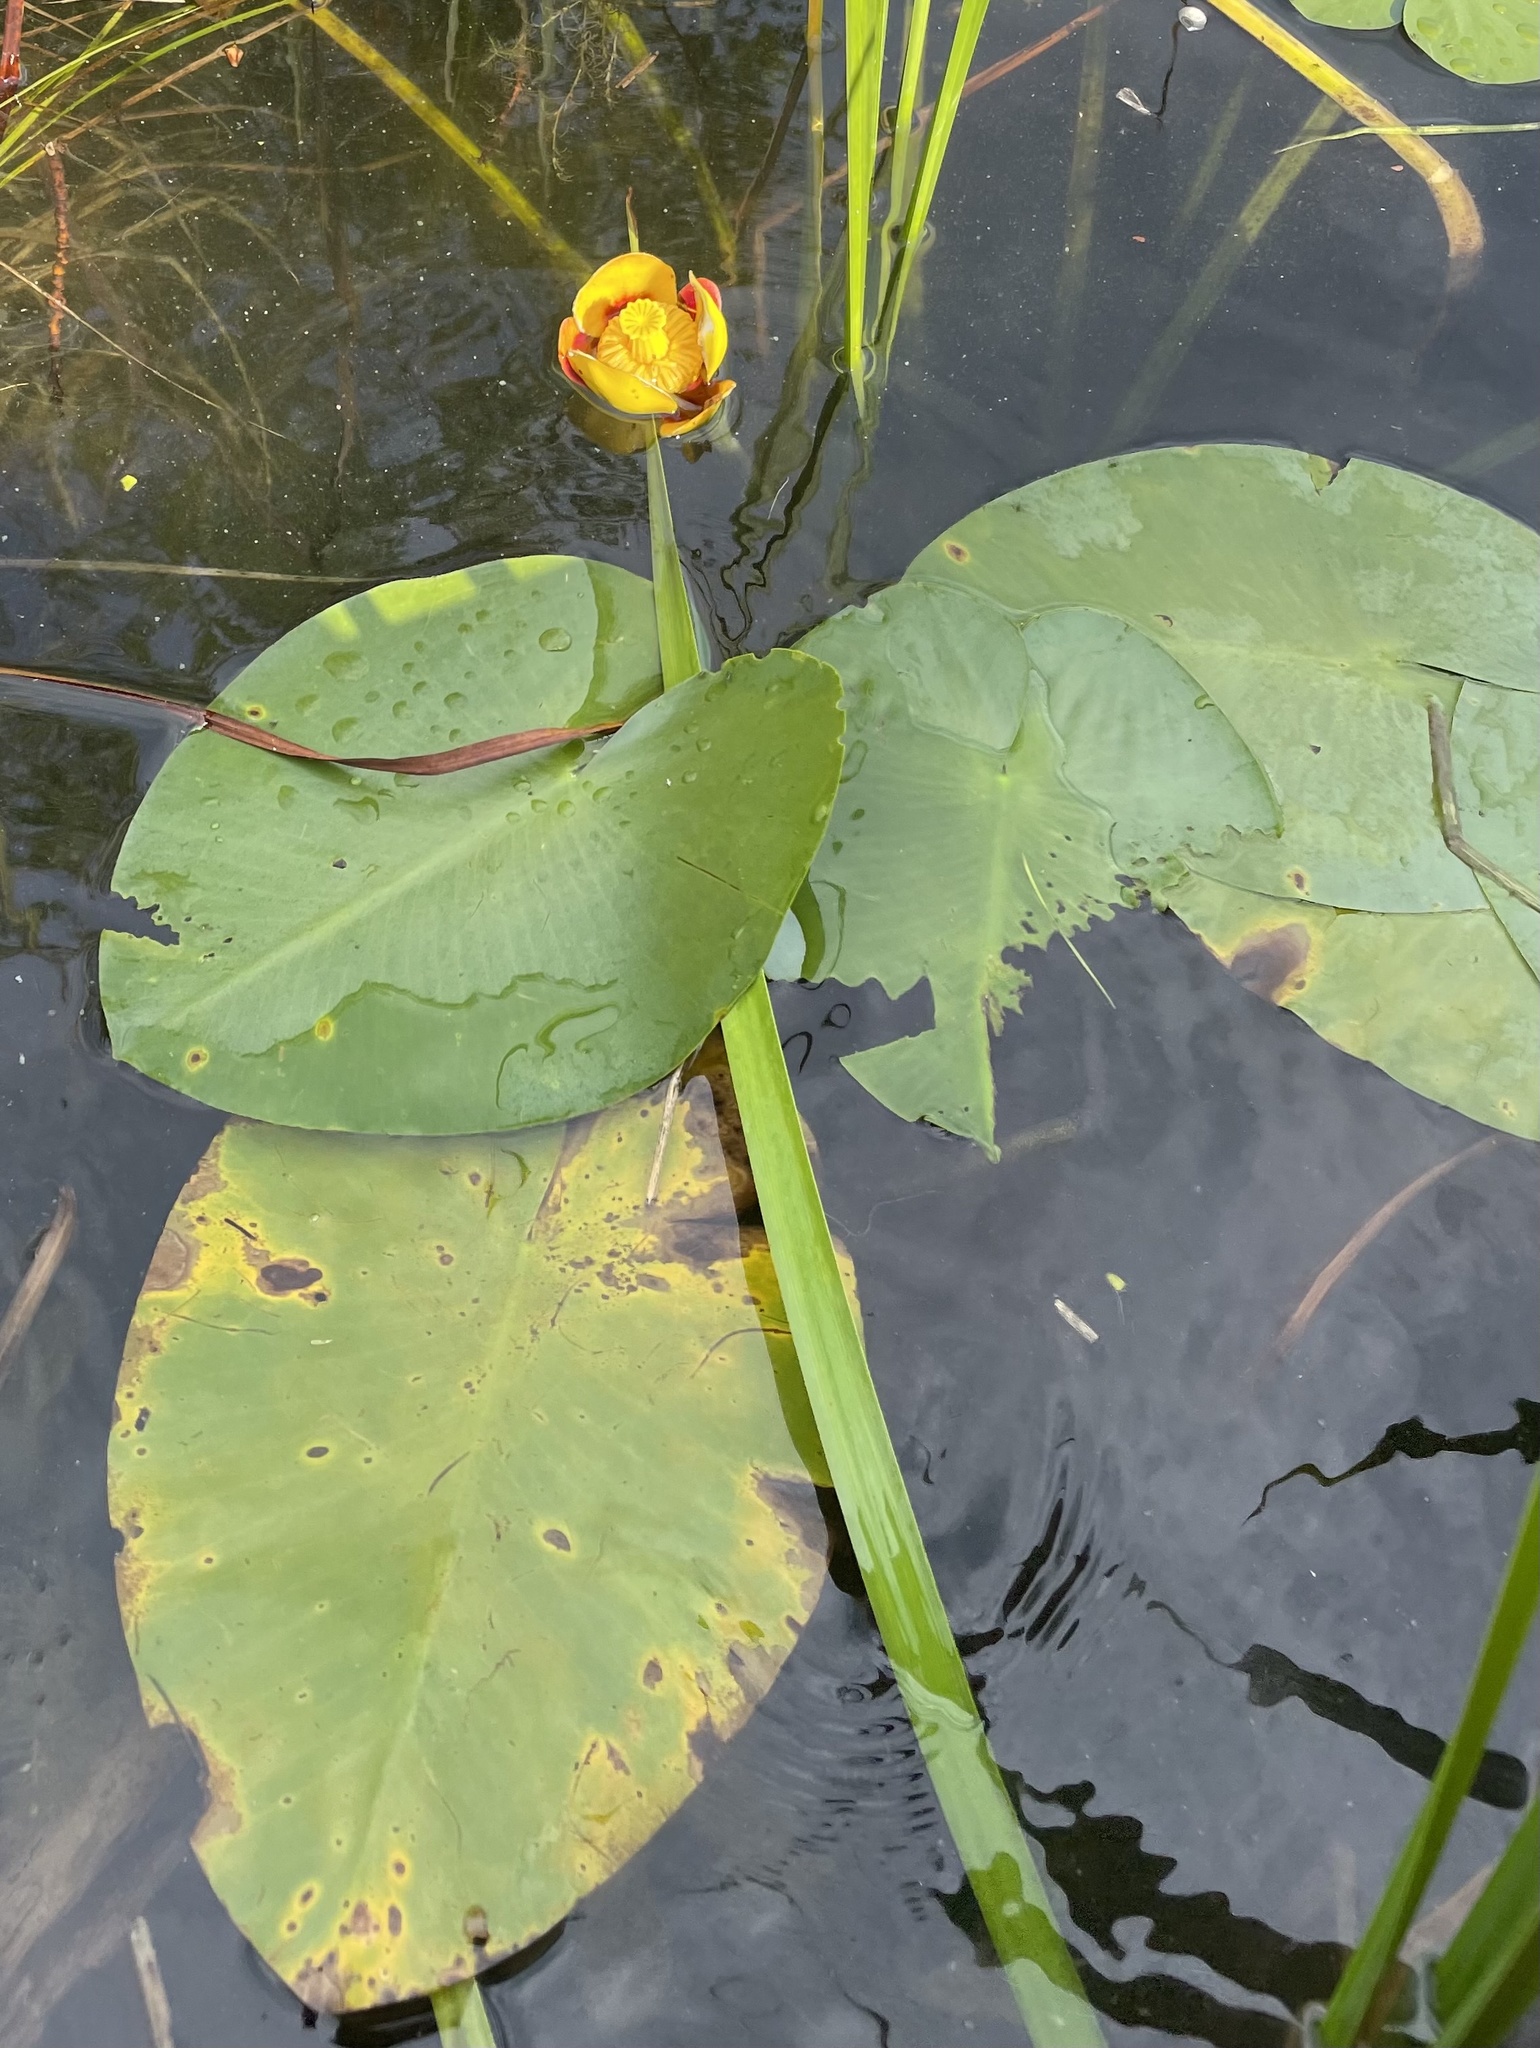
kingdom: Plantae
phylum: Tracheophyta
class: Magnoliopsida
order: Nymphaeales
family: Nymphaeaceae
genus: Nuphar
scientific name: Nuphar variegata
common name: Beaver-root
